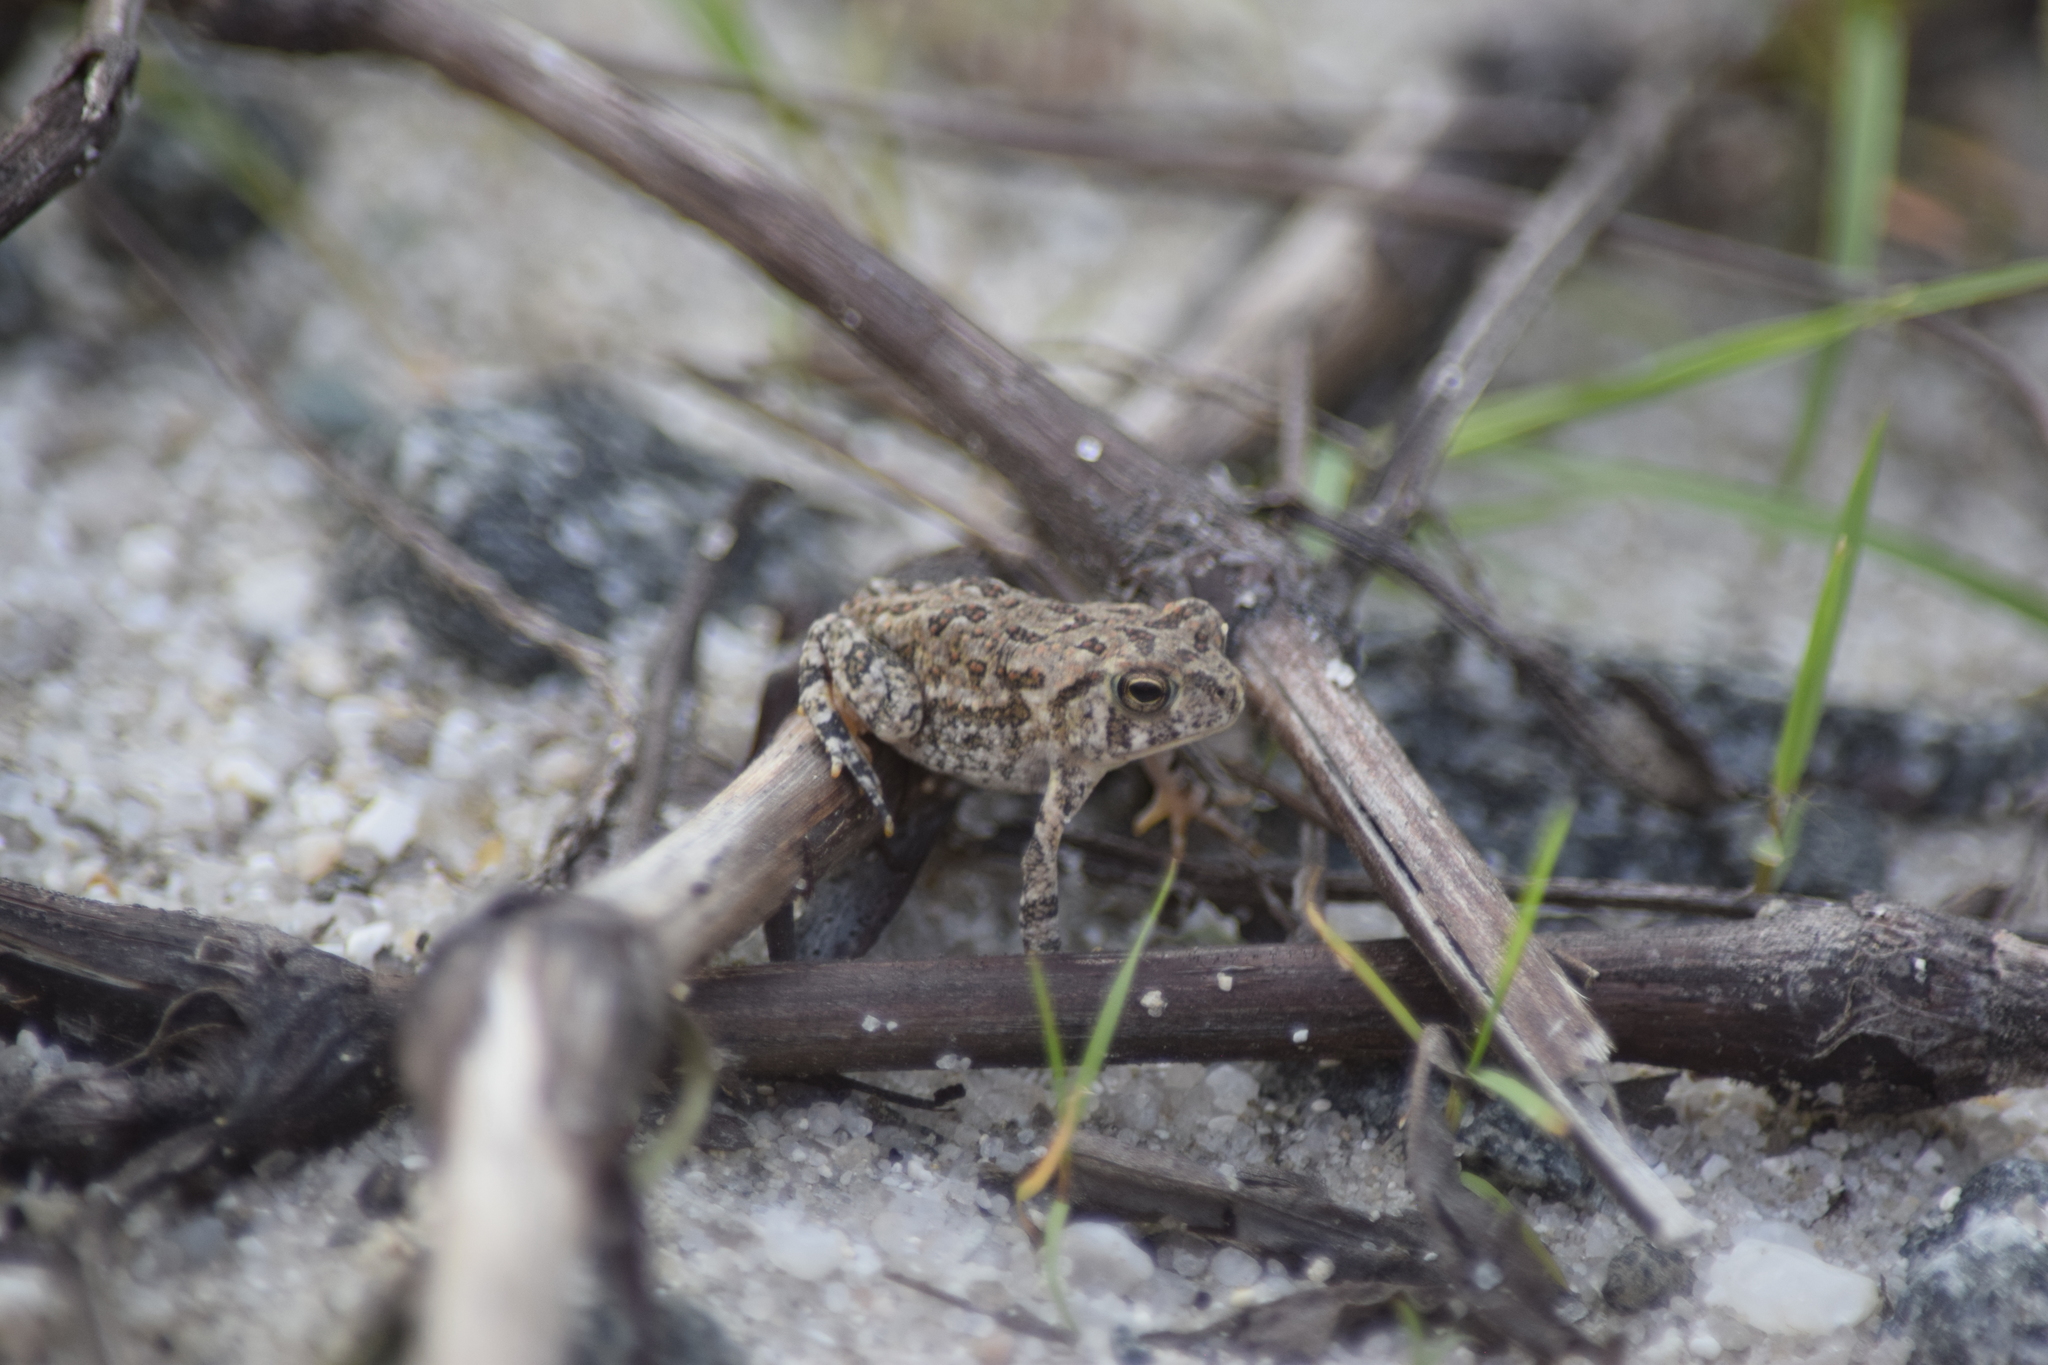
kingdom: Animalia
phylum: Chordata
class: Amphibia
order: Anura
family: Bufonidae
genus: Anaxyrus
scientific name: Anaxyrus fowleri
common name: Fowler's toad
